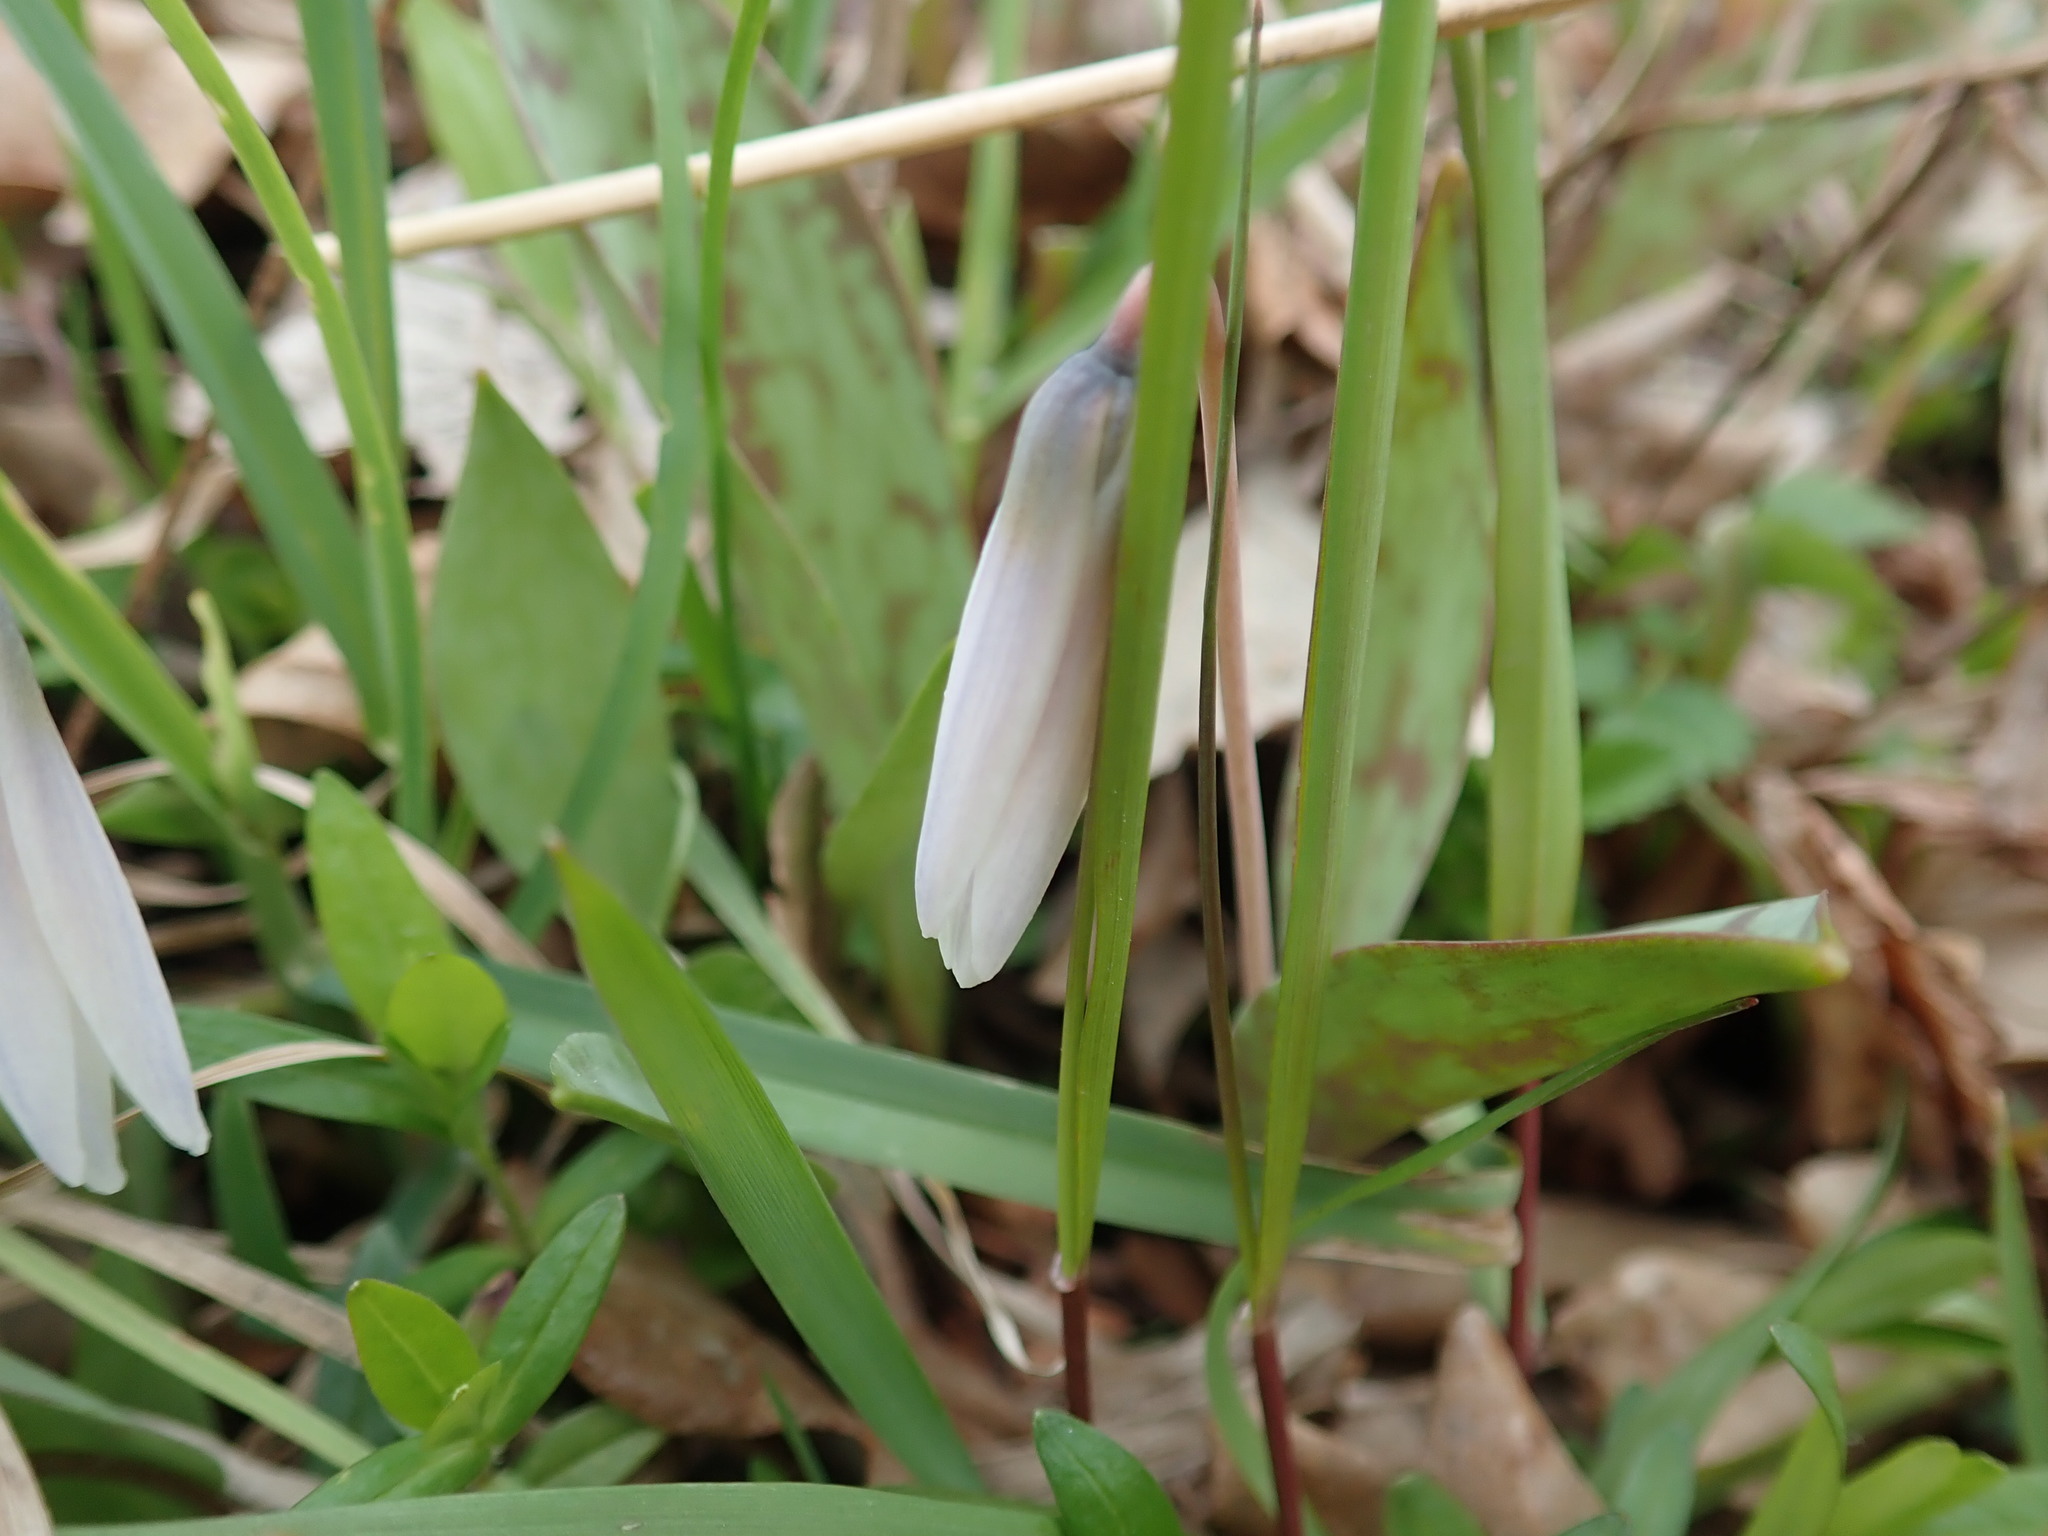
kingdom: Plantae
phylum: Tracheophyta
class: Liliopsida
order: Liliales
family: Liliaceae
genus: Erythronium
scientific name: Erythronium albidum
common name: White trout-lily
